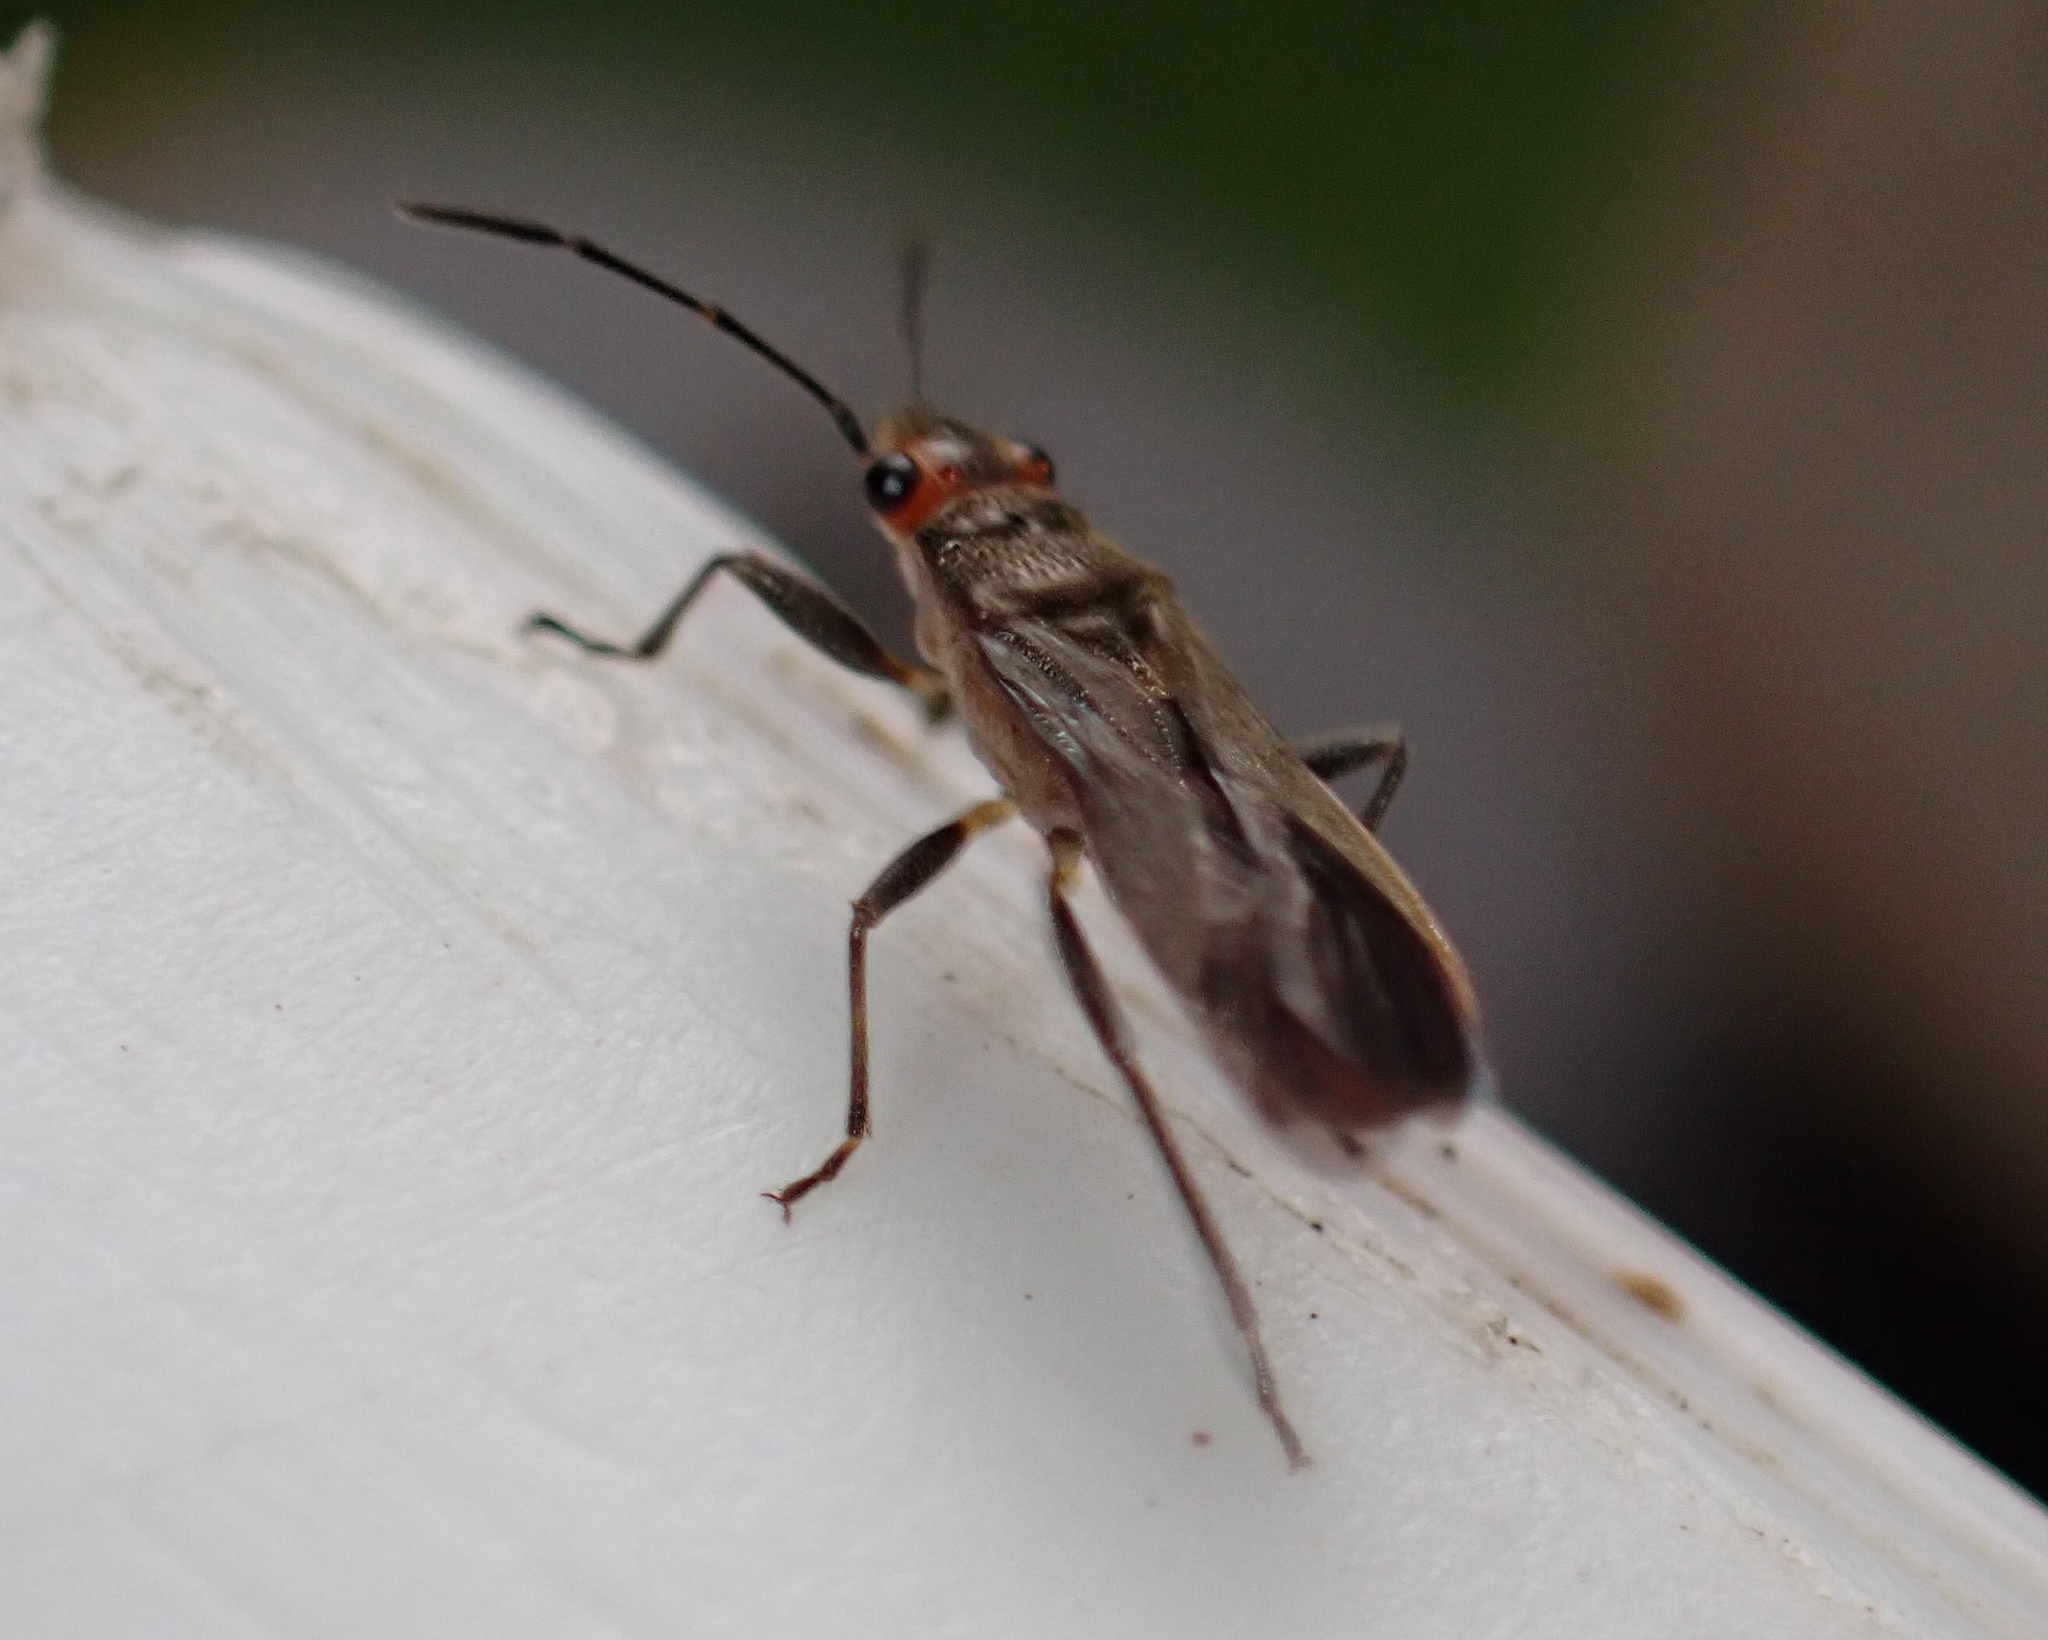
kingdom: Animalia
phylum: Arthropoda
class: Insecta
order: Hemiptera
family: Lygaeidae
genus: Arocatus
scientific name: Arocatus aenescens
